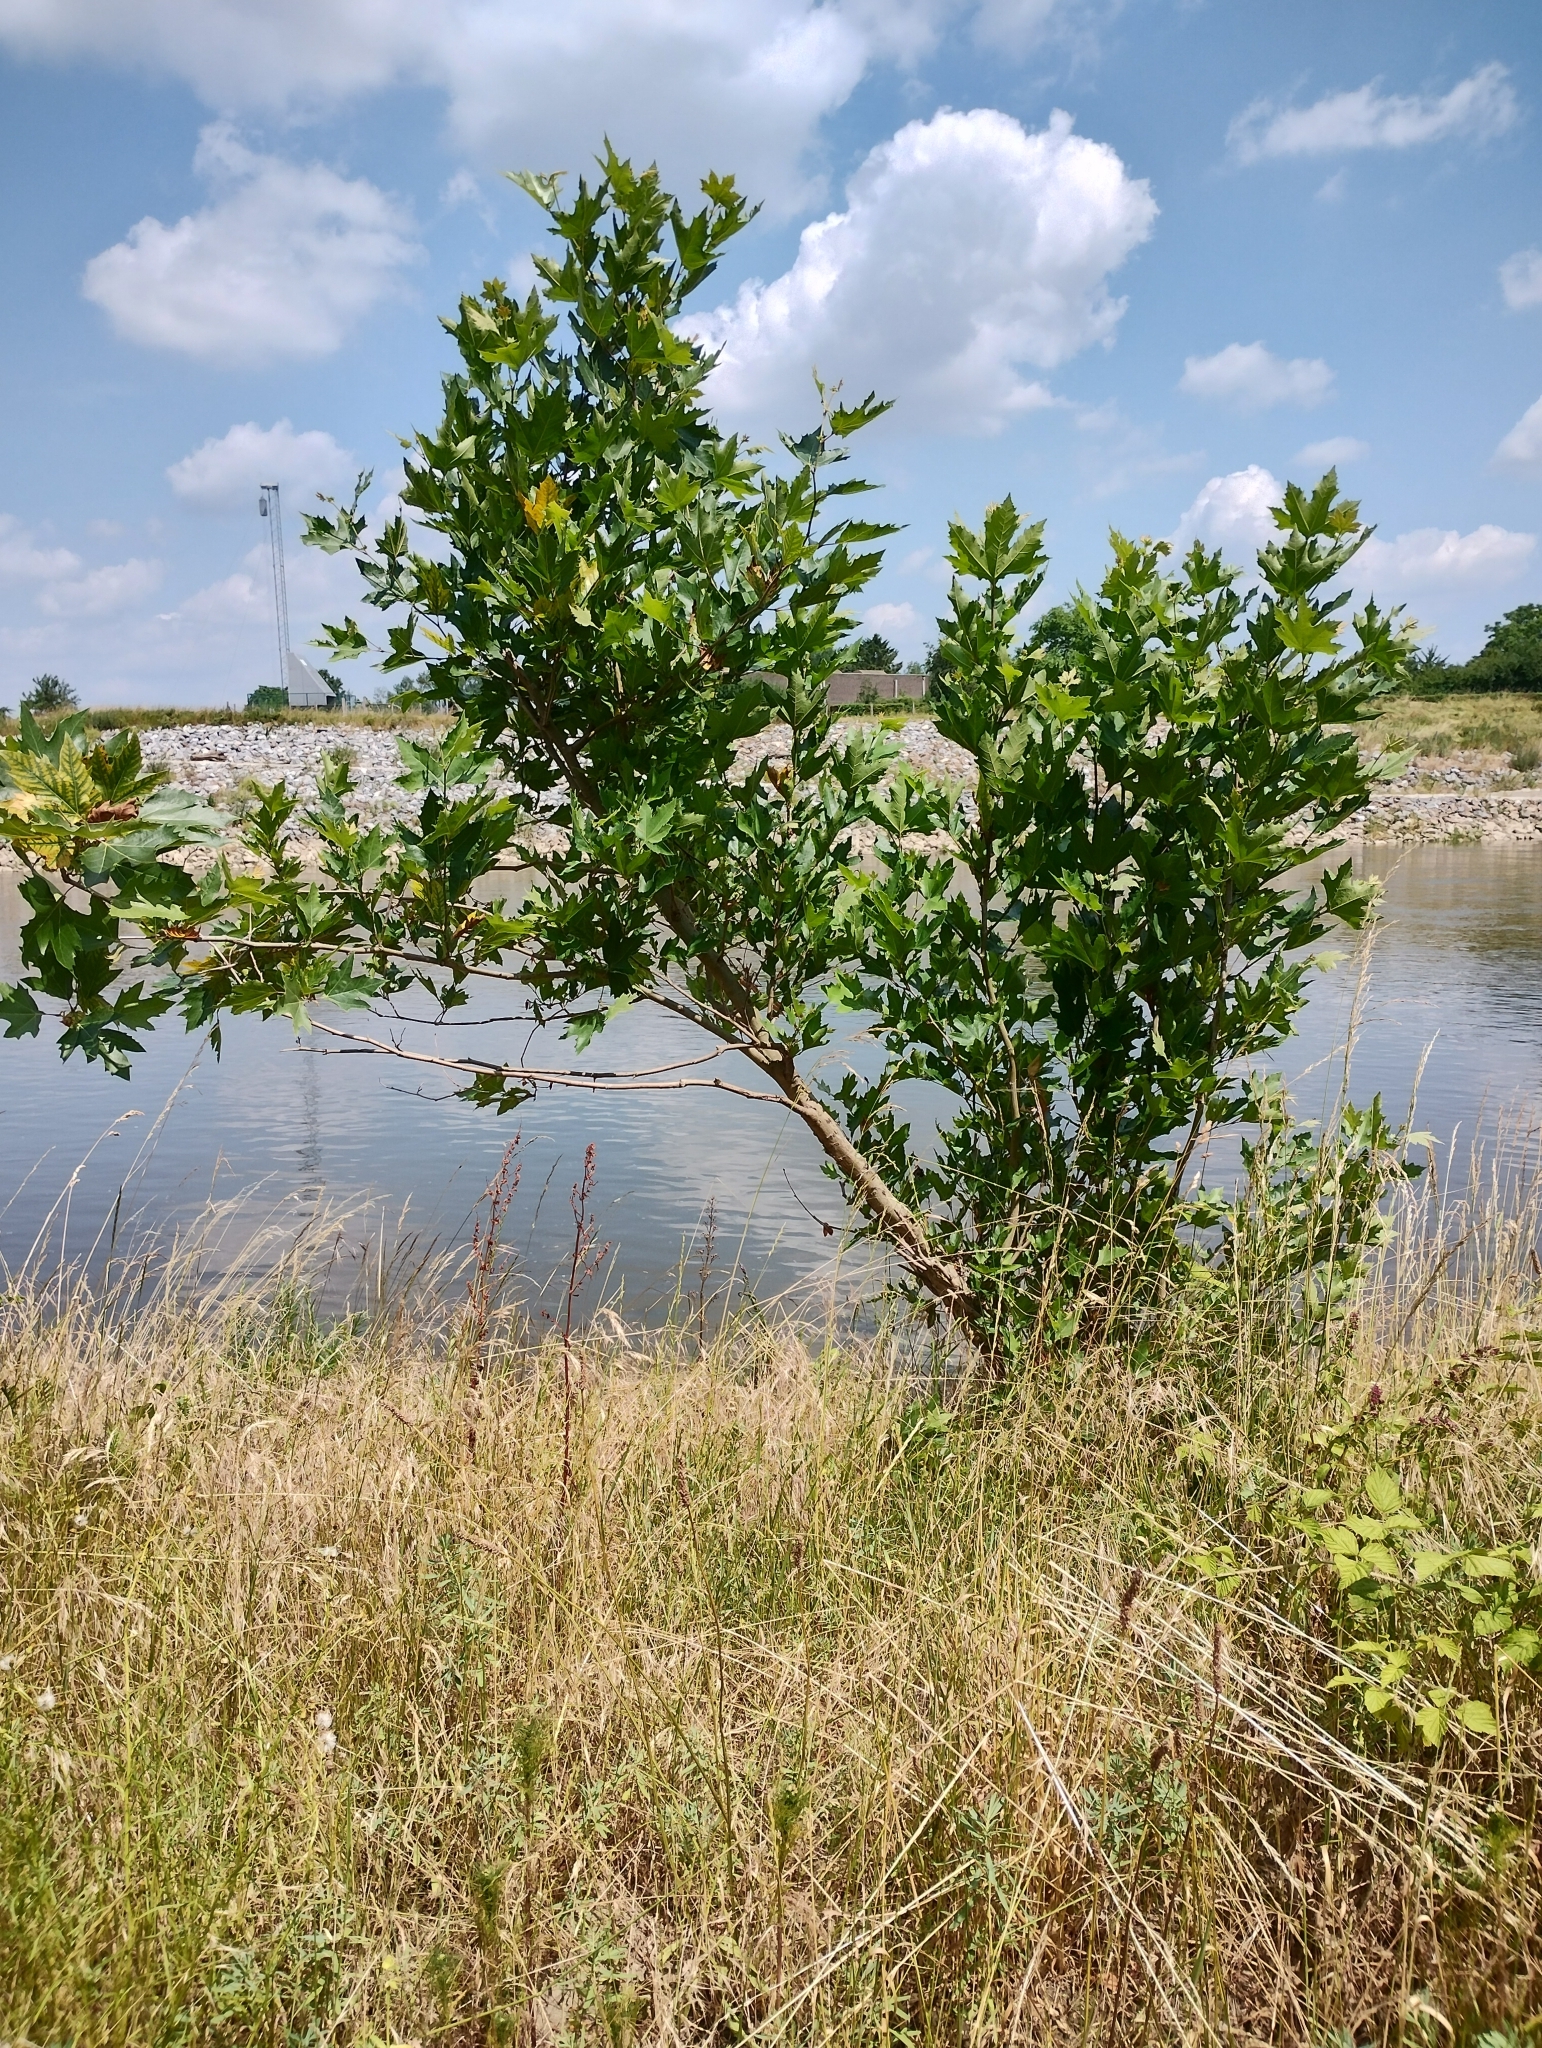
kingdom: Plantae
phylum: Tracheophyta
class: Magnoliopsida
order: Proteales
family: Platanaceae
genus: Platanus
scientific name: Platanus hispanica
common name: London plane
